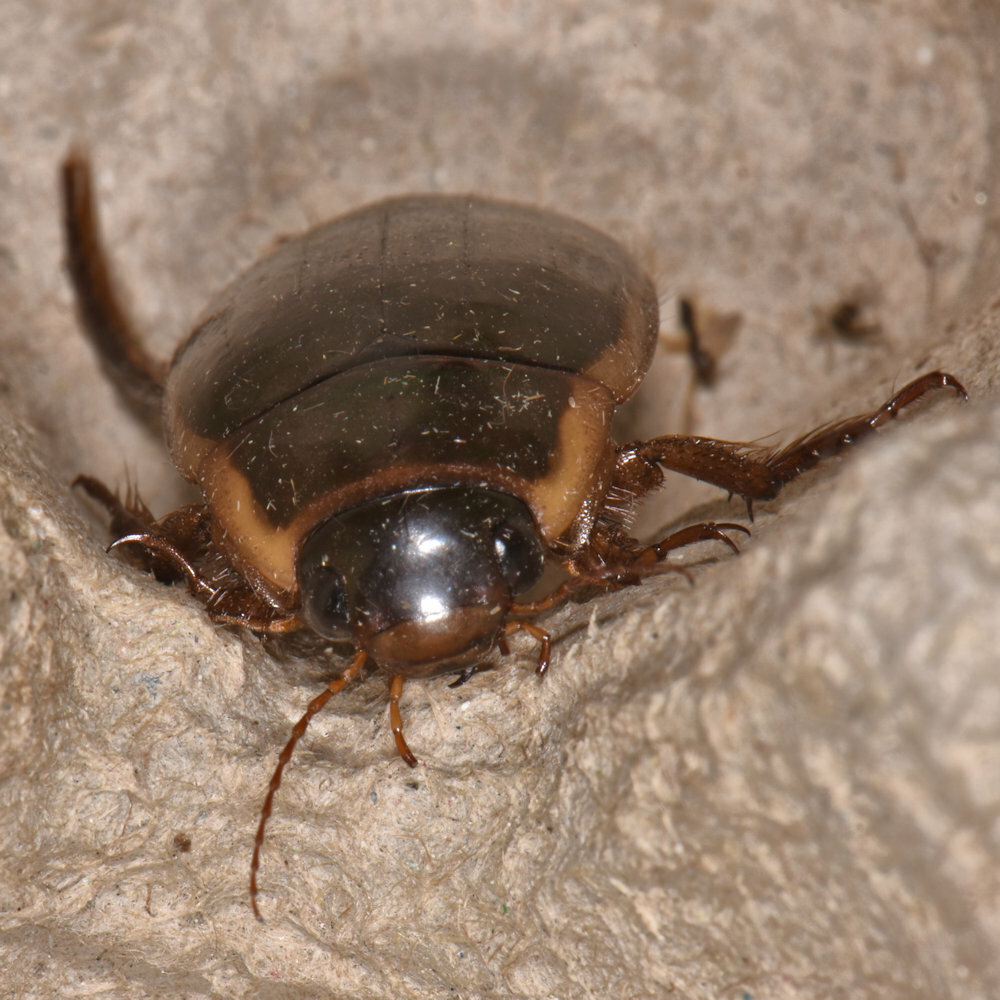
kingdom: Animalia
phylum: Arthropoda
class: Insecta
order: Coleoptera
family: Dytiscidae
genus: Dytiscus
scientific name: Dytiscus fasciventris
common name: Understriped diving beetle
